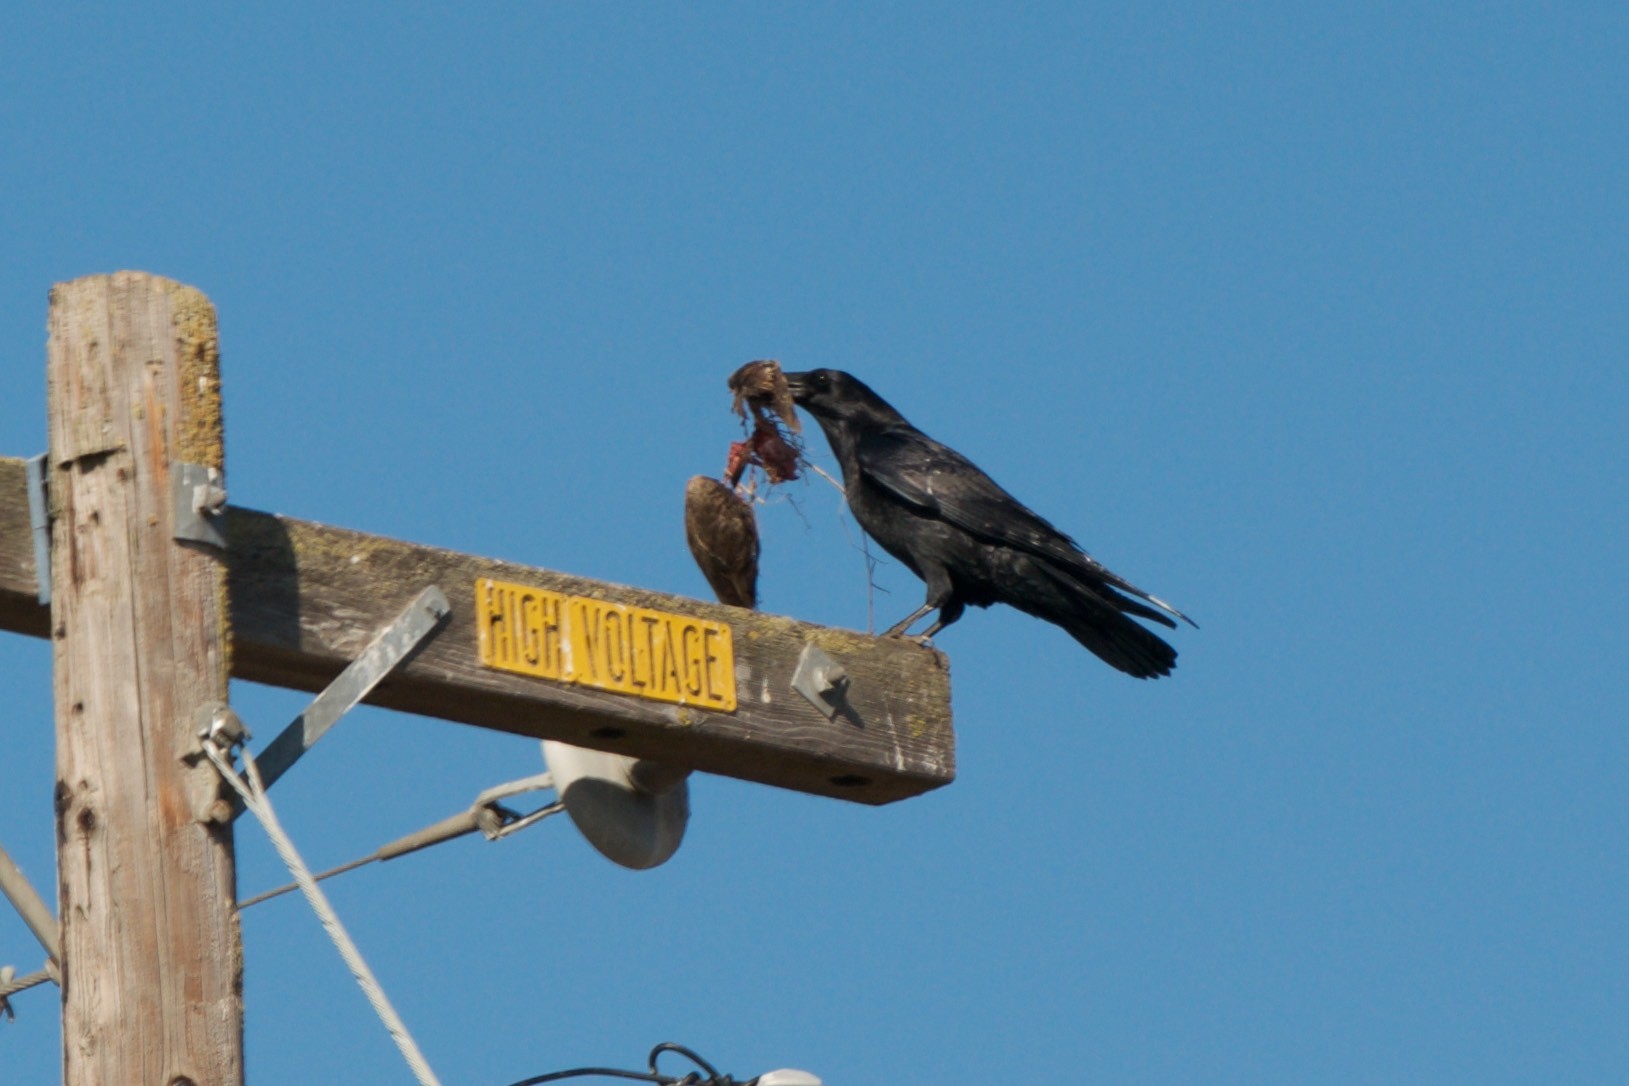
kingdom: Animalia
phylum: Chordata
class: Aves
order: Passeriformes
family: Corvidae
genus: Corvus
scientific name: Corvus corax
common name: Common raven
